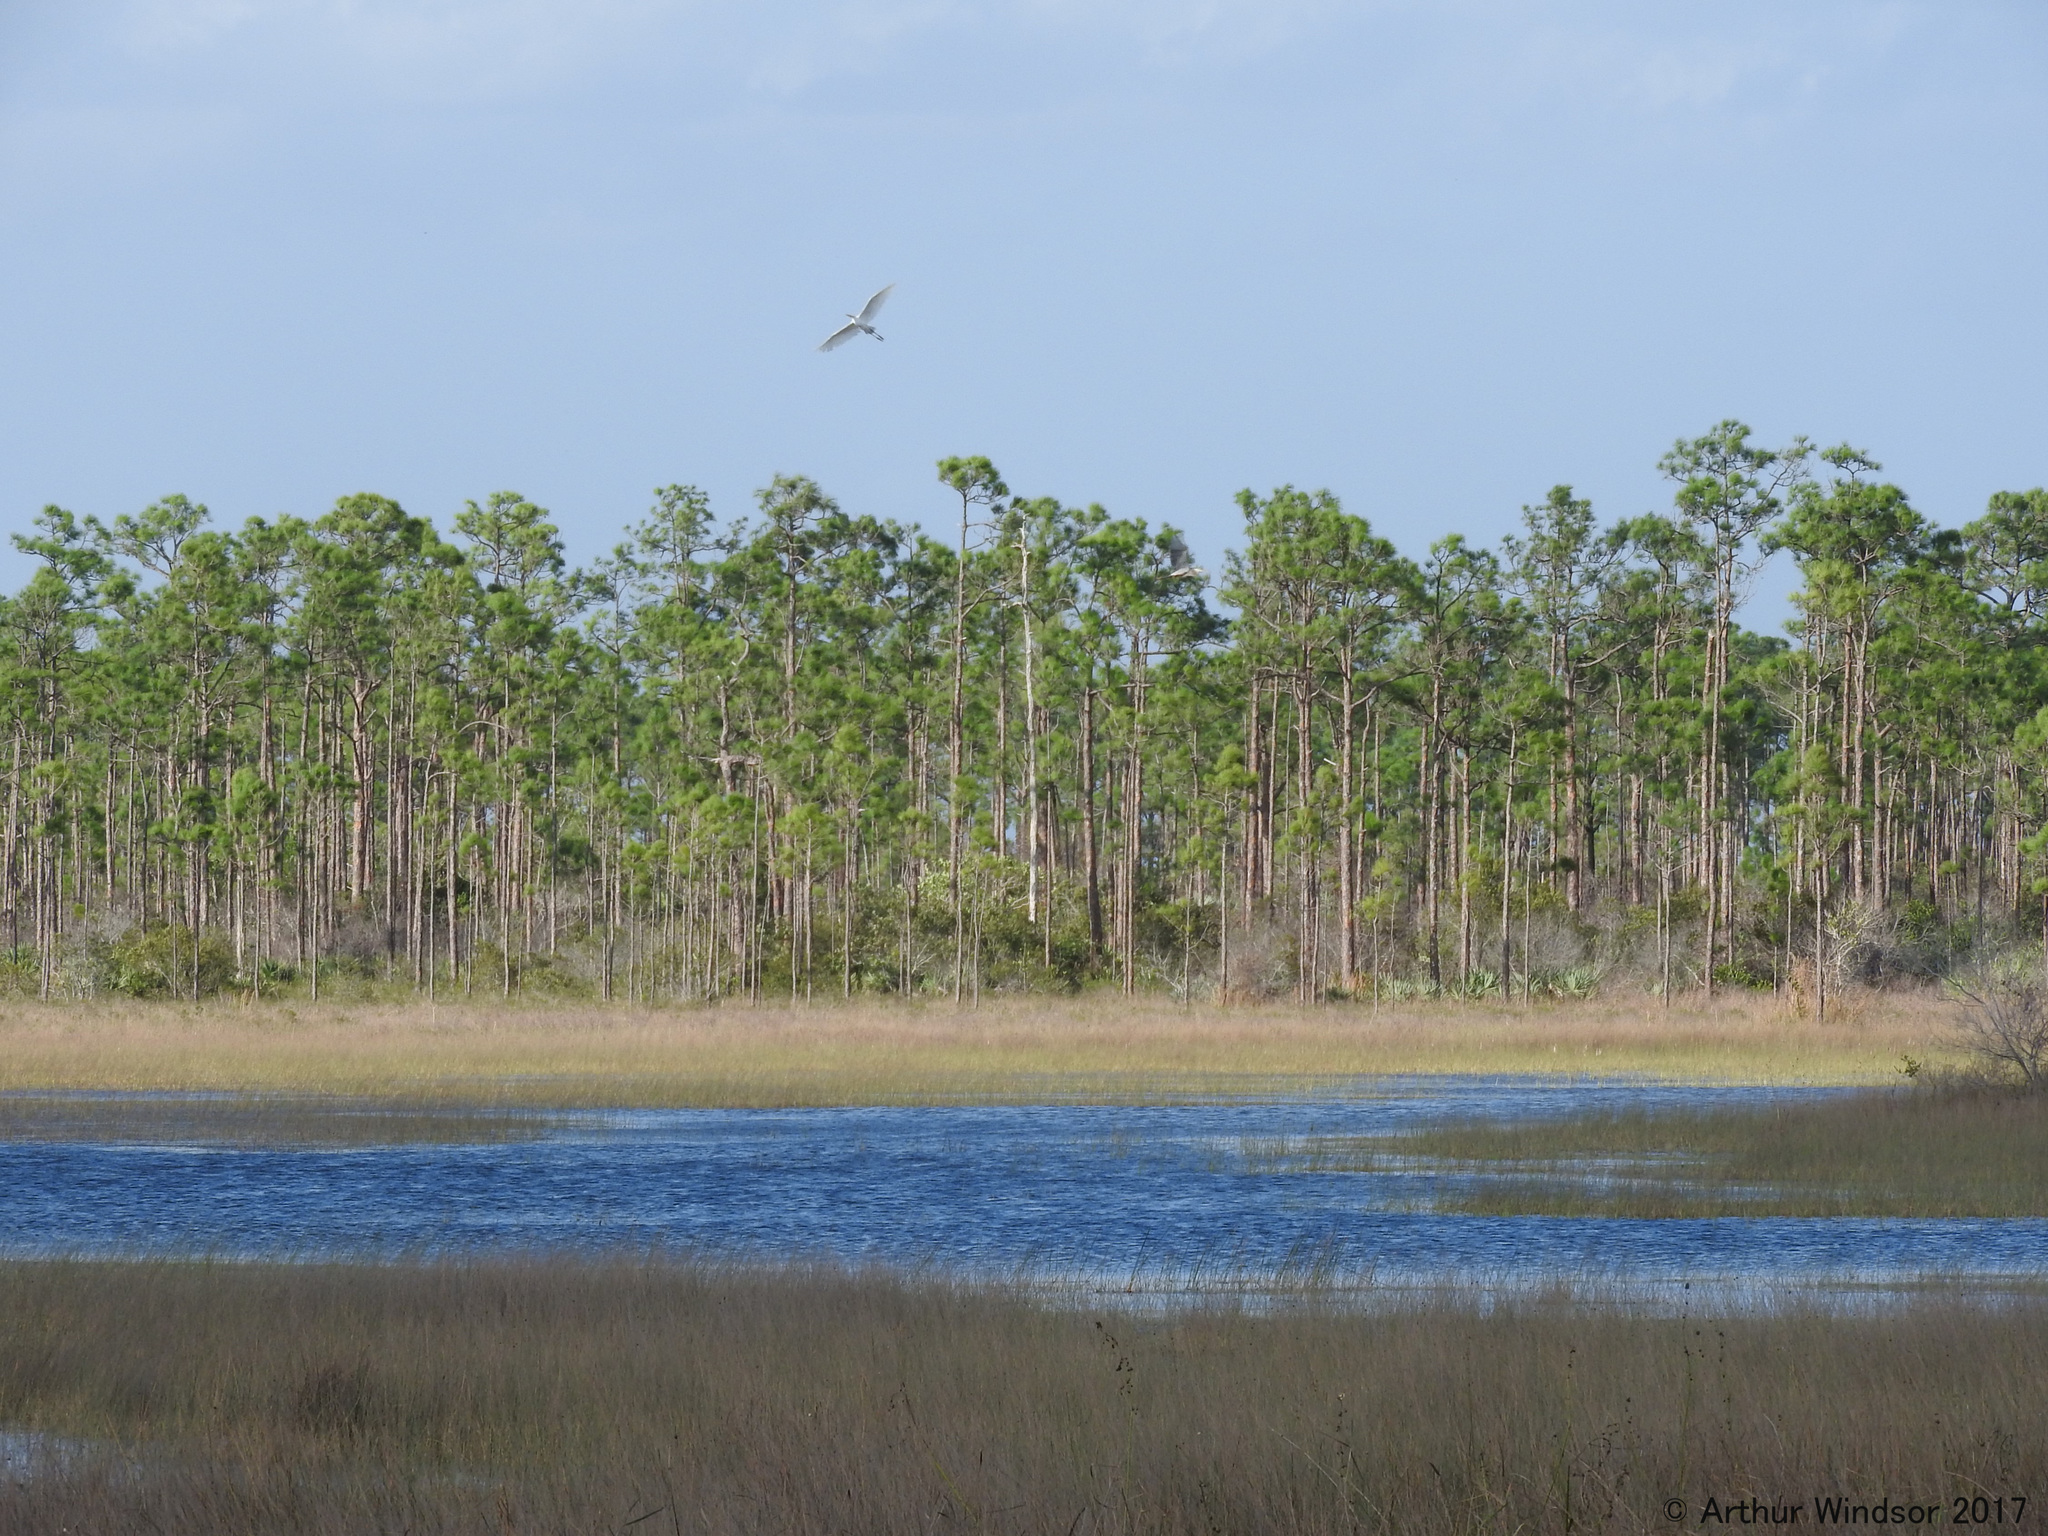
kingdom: Animalia
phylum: Chordata
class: Aves
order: Pelecaniformes
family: Ardeidae
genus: Ardea
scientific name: Ardea alba
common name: Great egret
